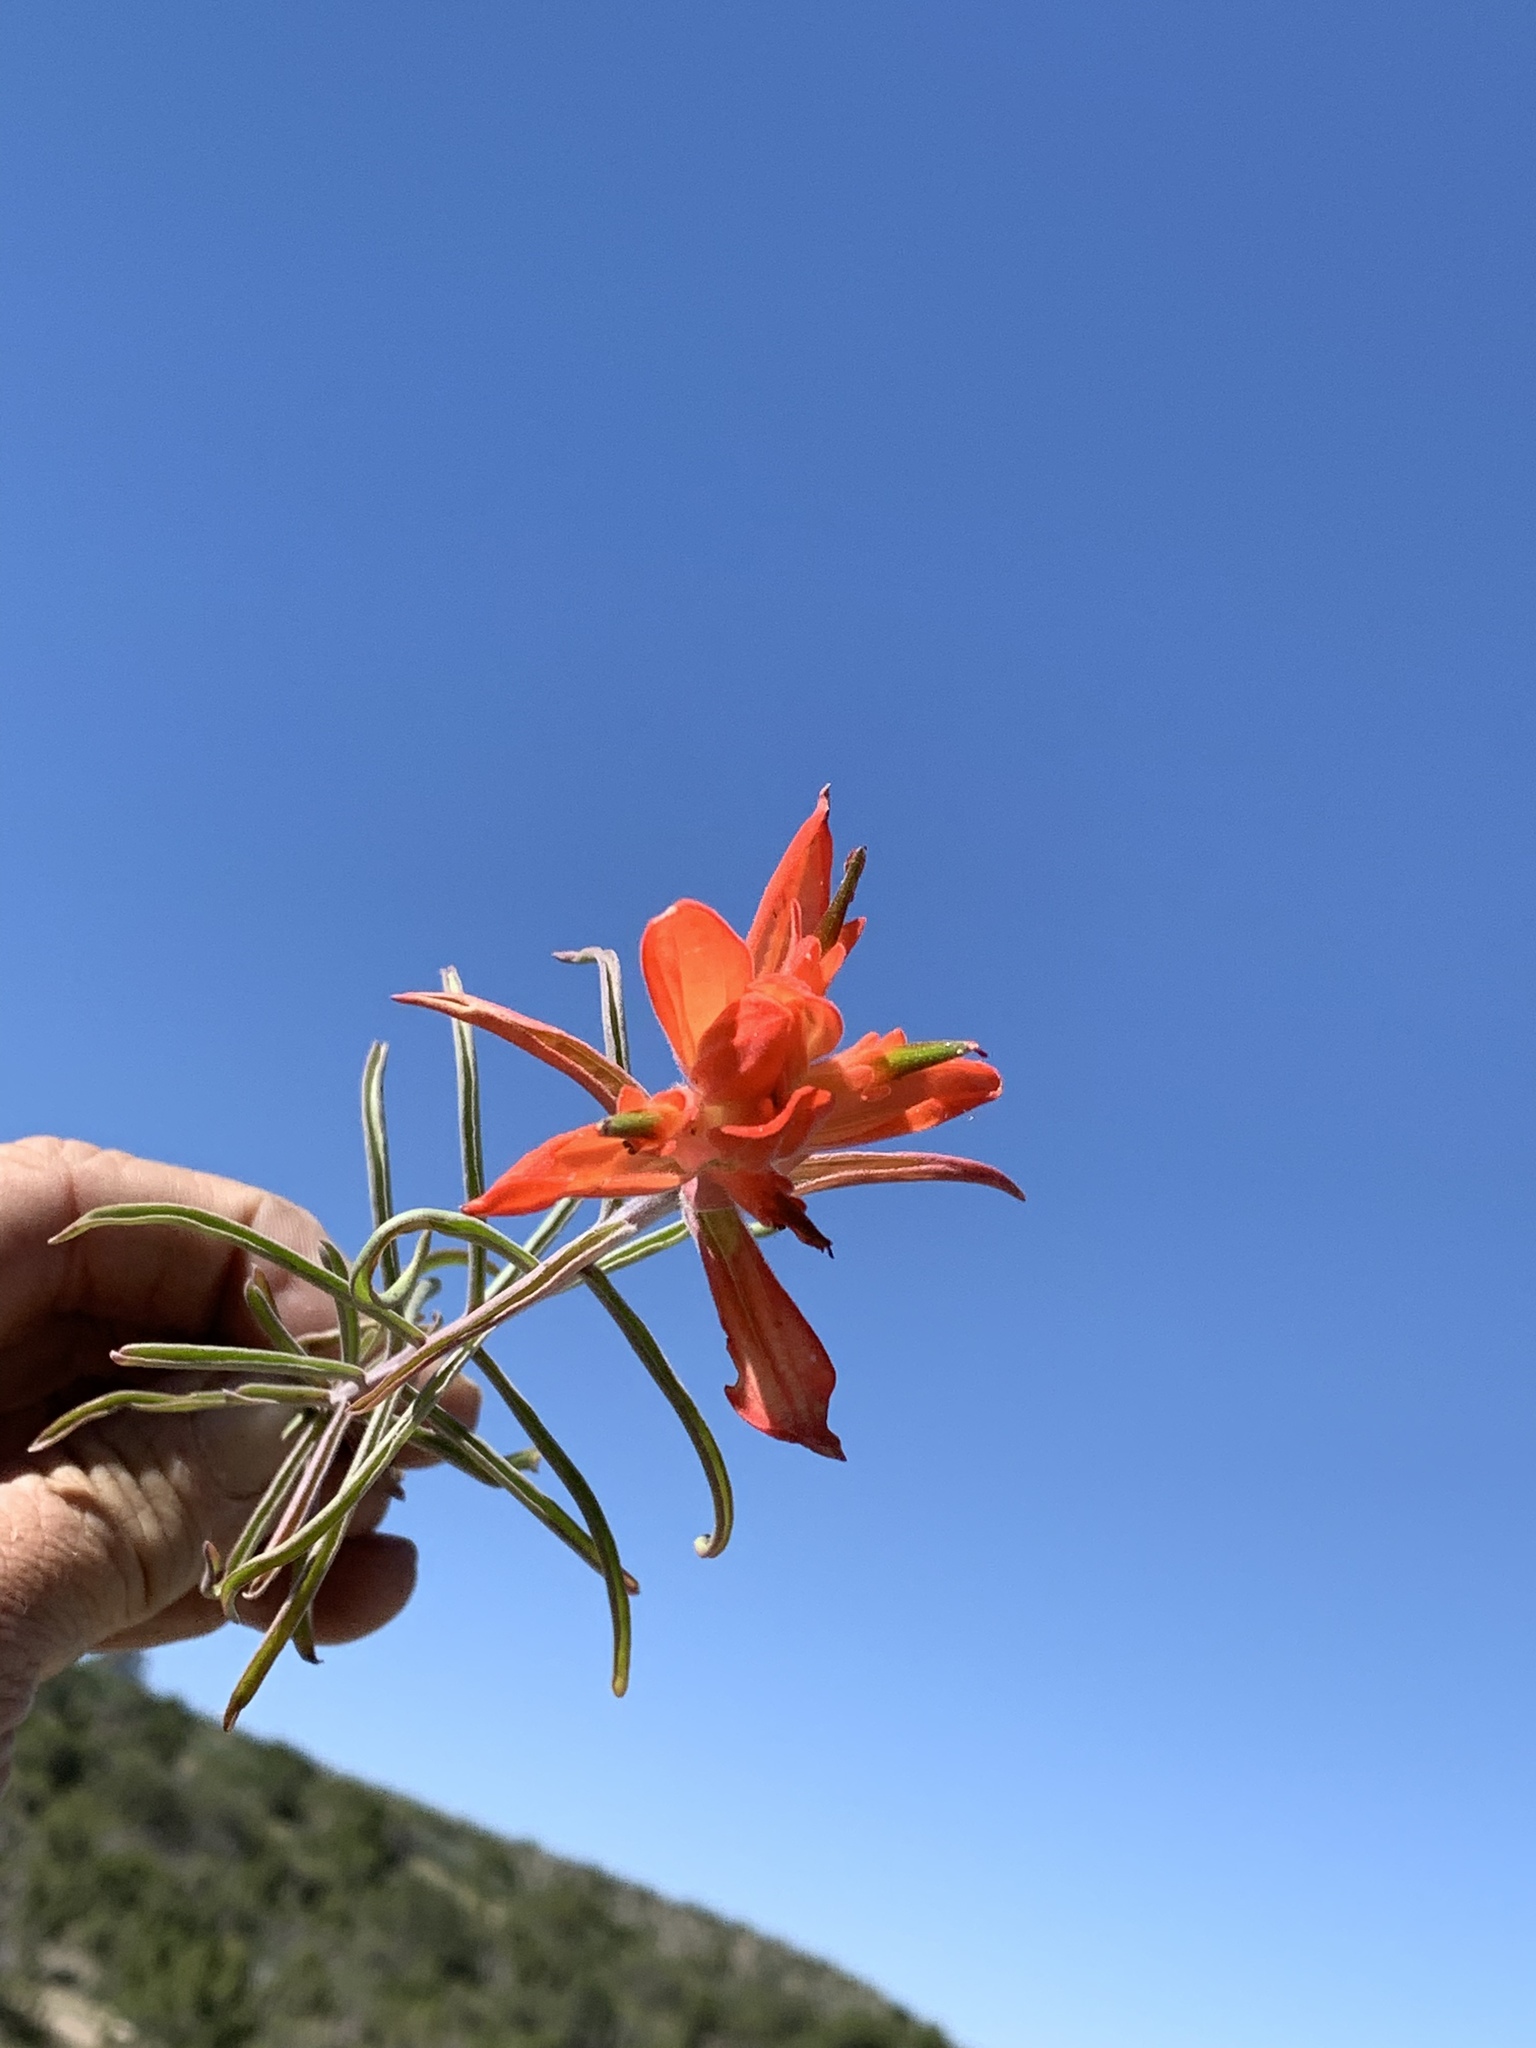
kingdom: Plantae
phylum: Tracheophyta
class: Magnoliopsida
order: Lamiales
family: Orobanchaceae
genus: Castilleja
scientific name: Castilleja integra
